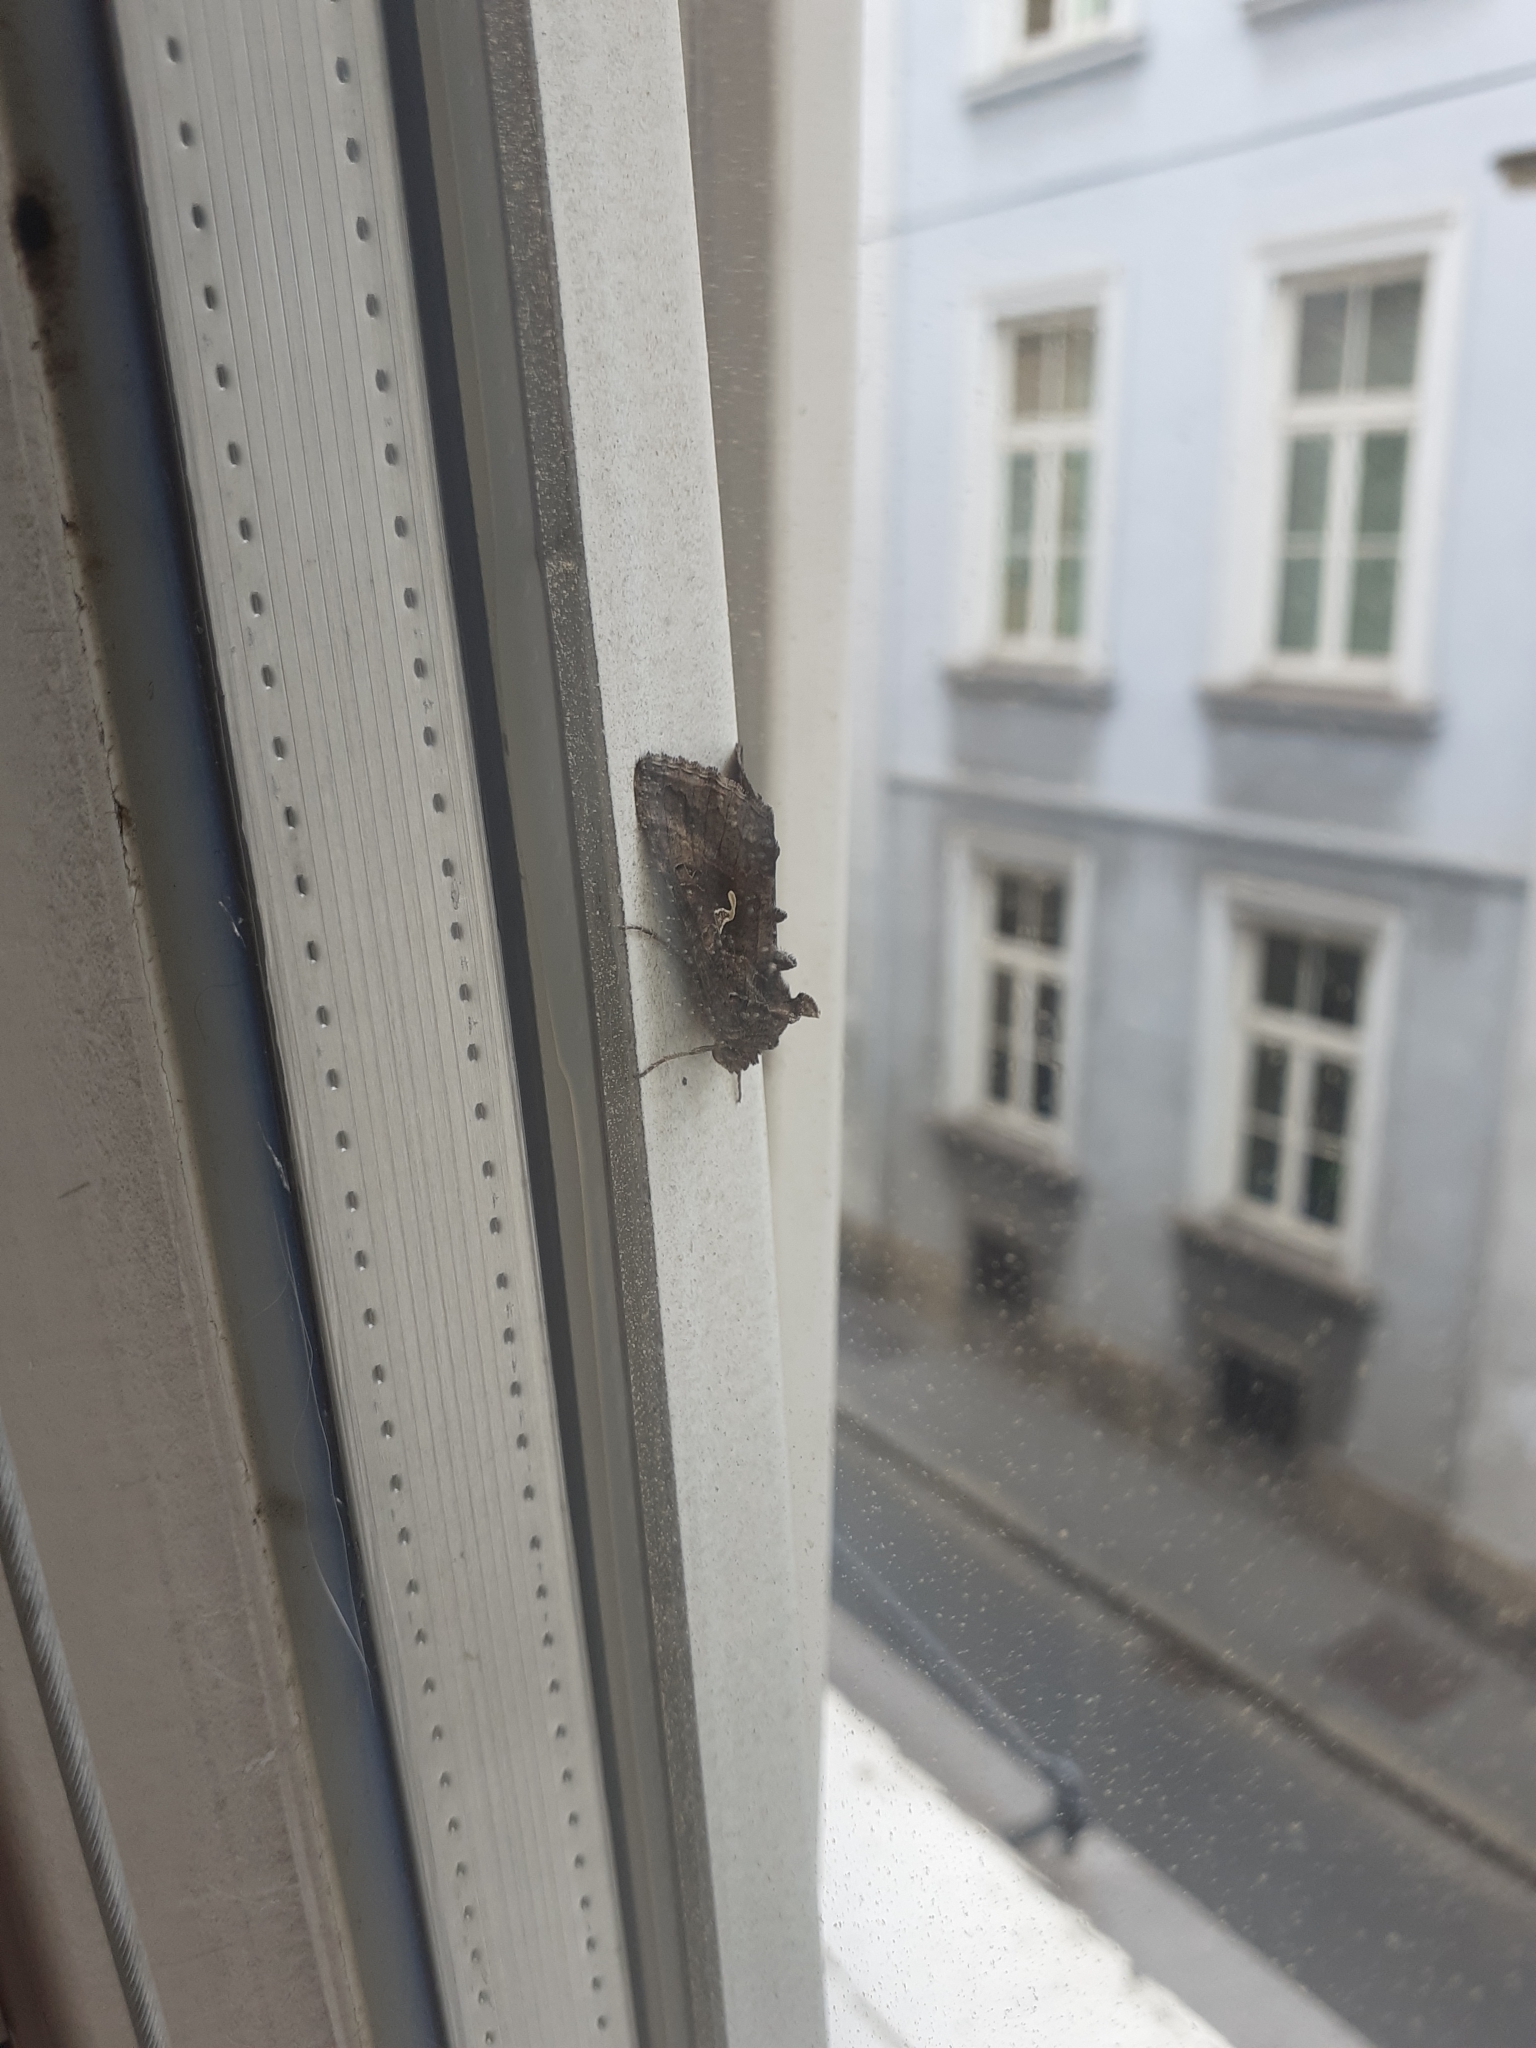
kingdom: Animalia
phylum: Arthropoda
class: Insecta
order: Lepidoptera
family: Noctuidae
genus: Autographa
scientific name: Autographa gamma
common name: Silver y
